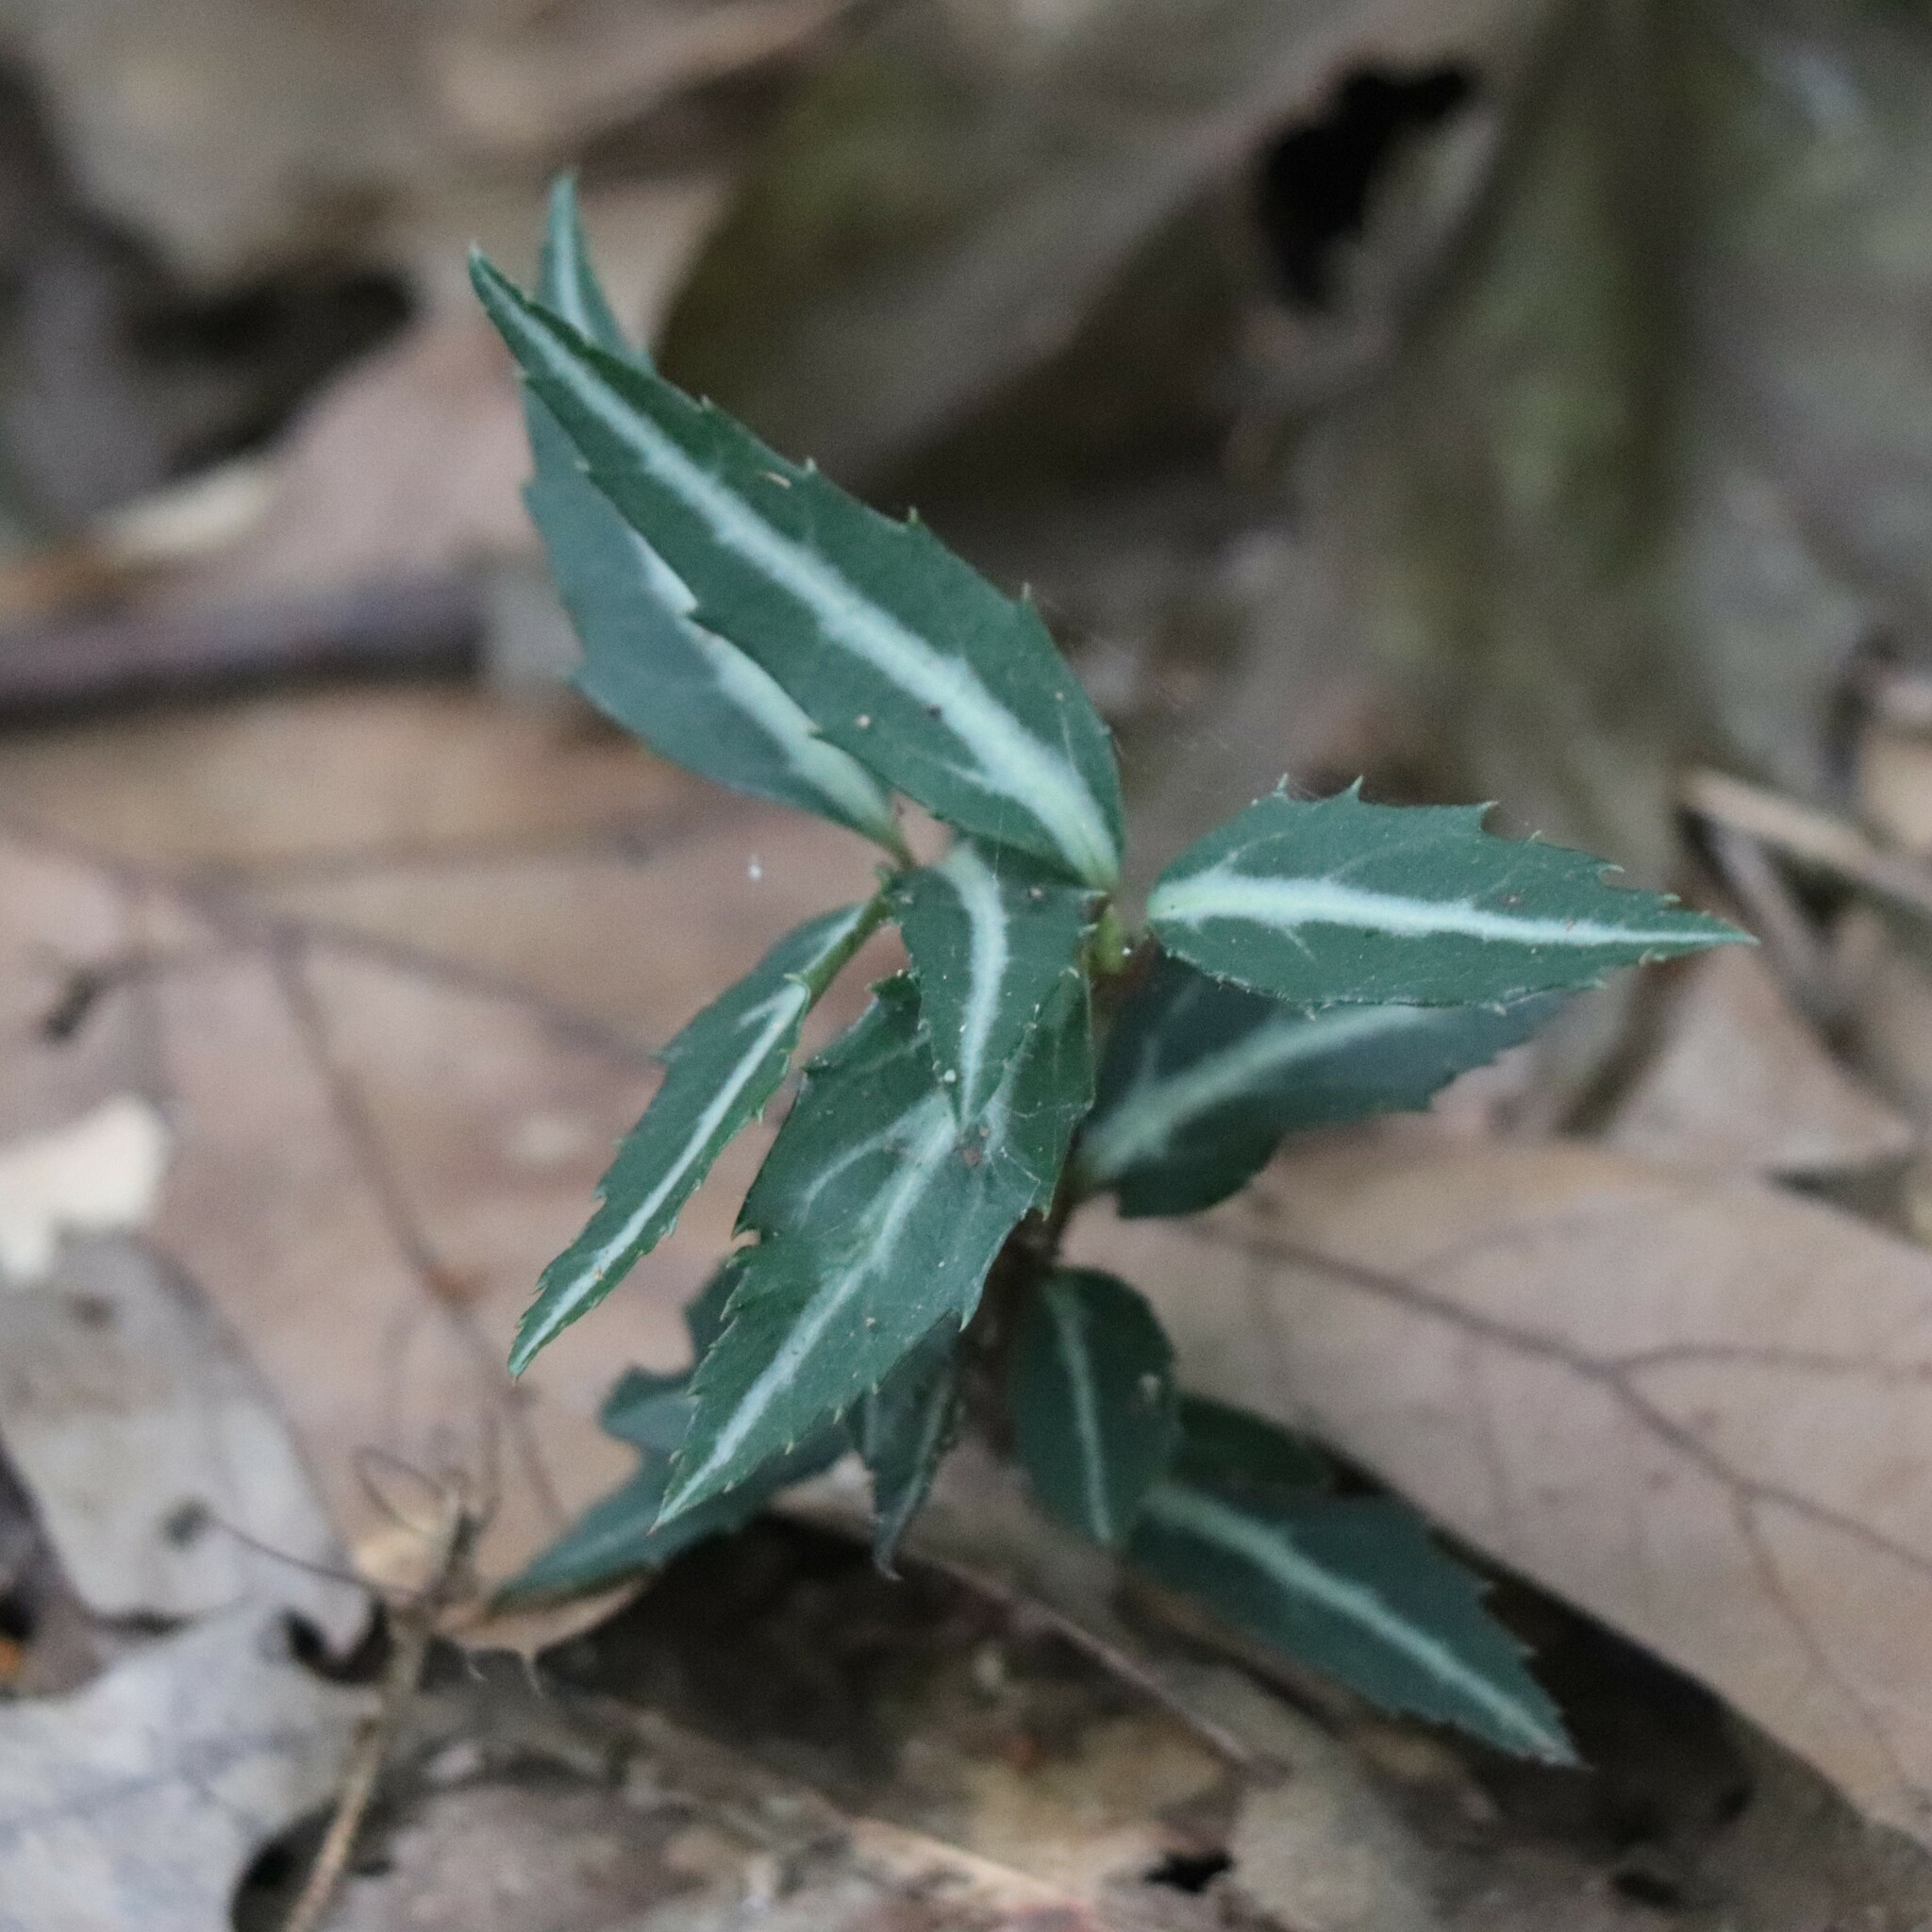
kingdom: Plantae
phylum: Tracheophyta
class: Magnoliopsida
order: Ericales
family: Ericaceae
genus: Chimaphila
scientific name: Chimaphila maculata
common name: Spotted pipsissewa
